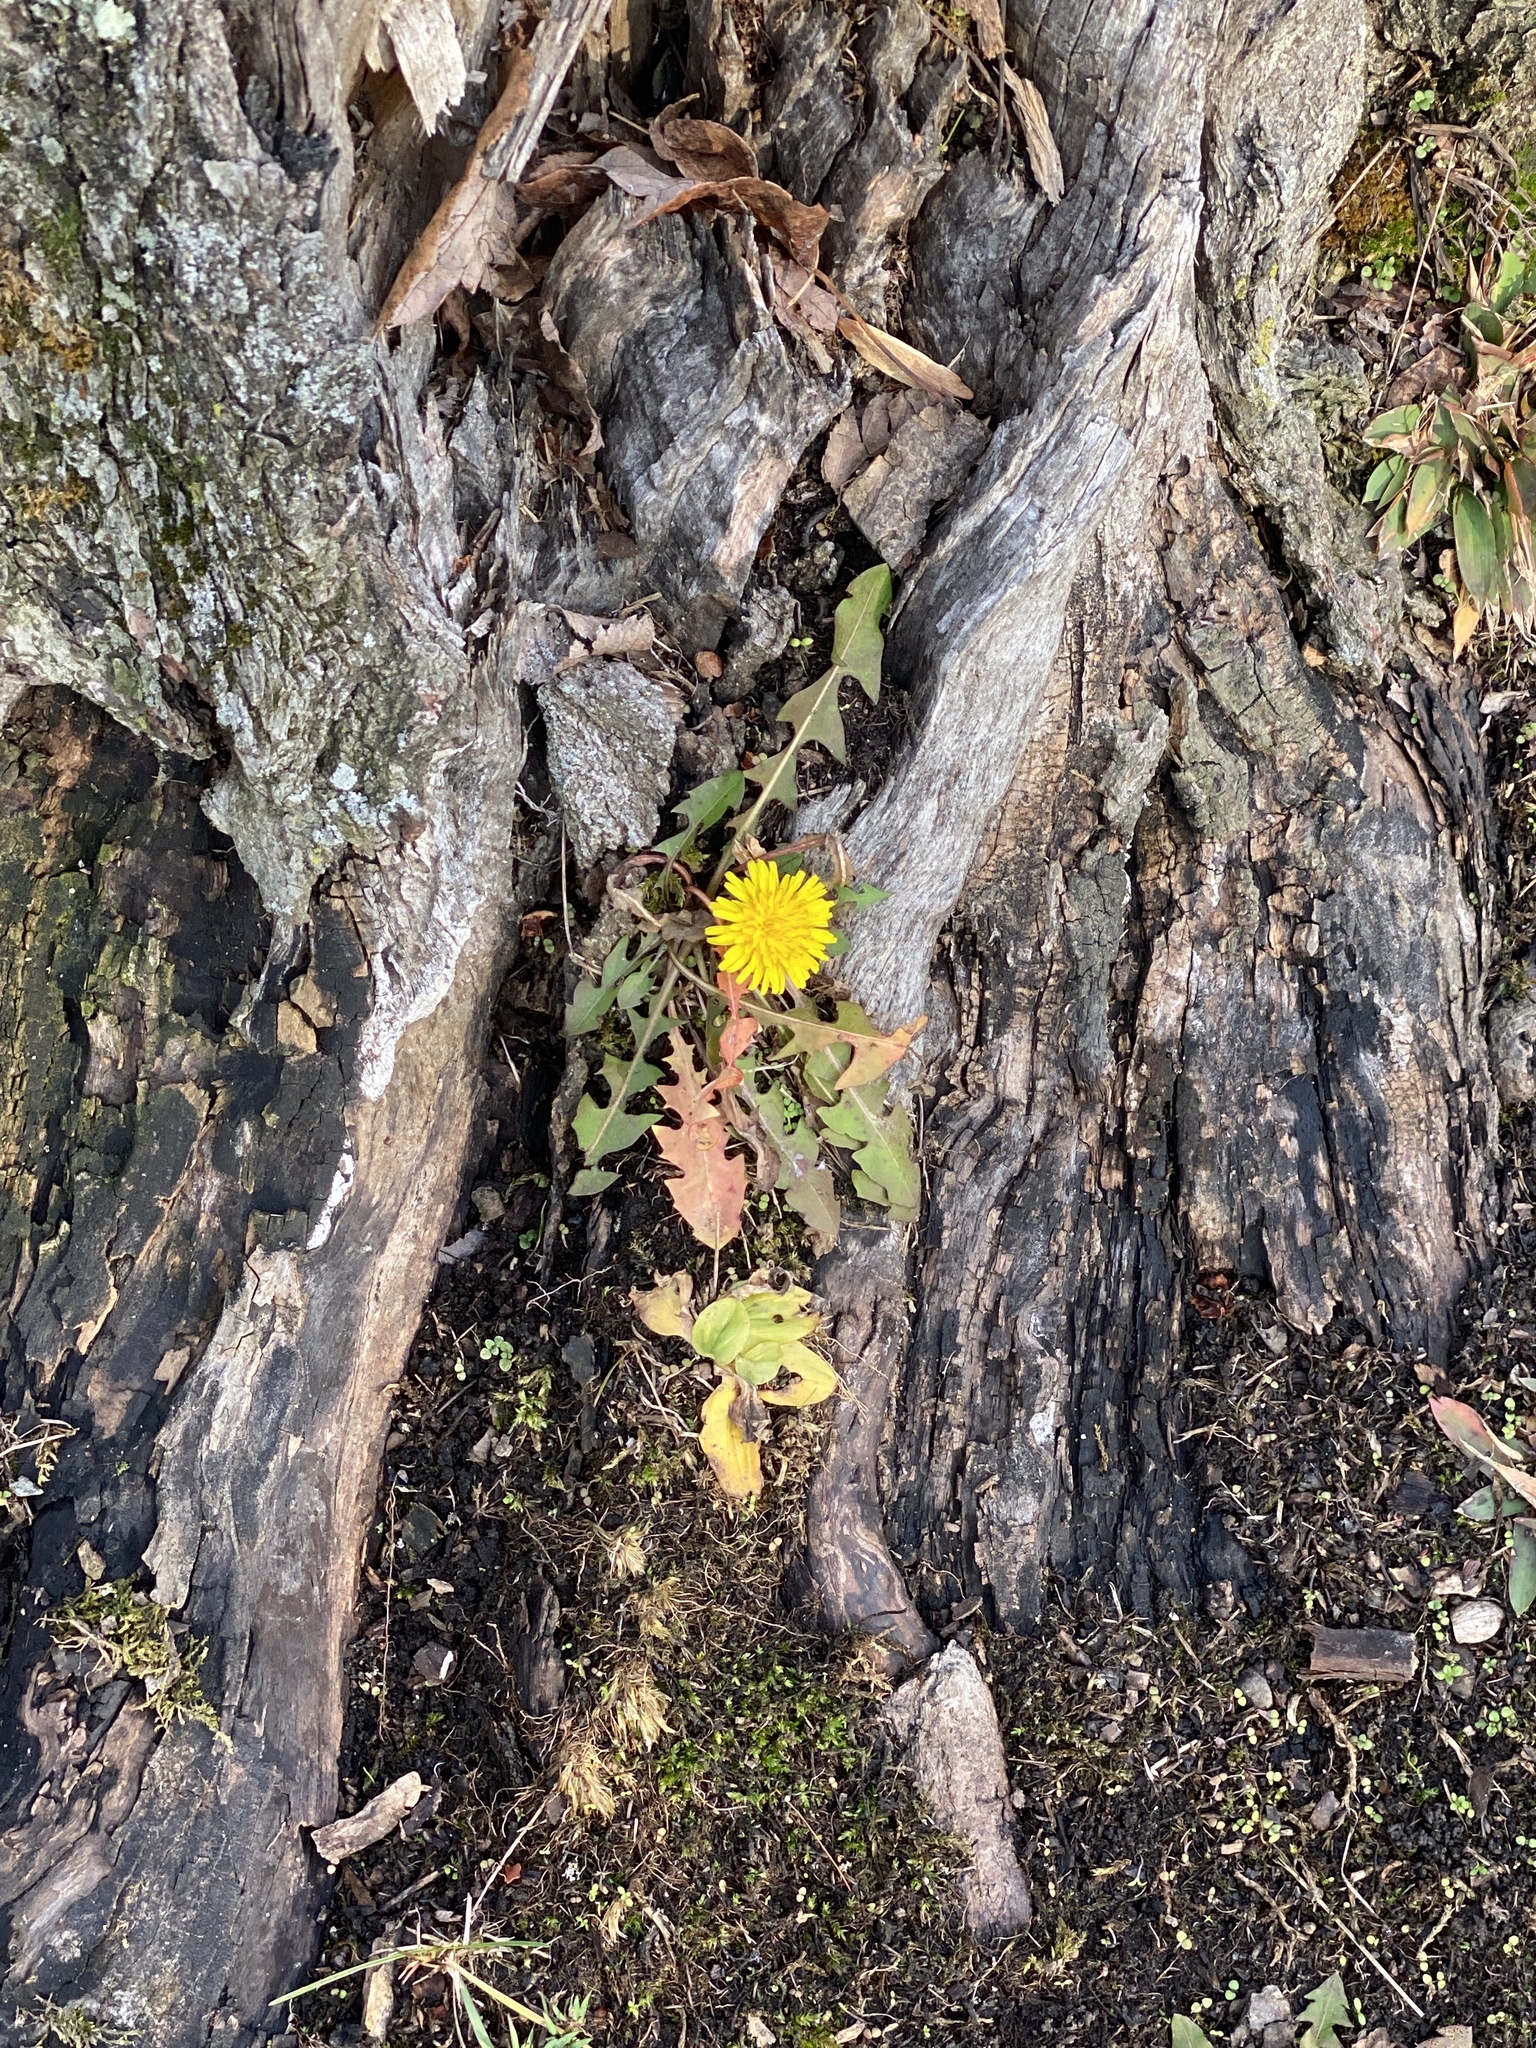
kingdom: Plantae
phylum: Tracheophyta
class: Magnoliopsida
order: Asterales
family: Asteraceae
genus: Taraxacum
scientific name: Taraxacum
